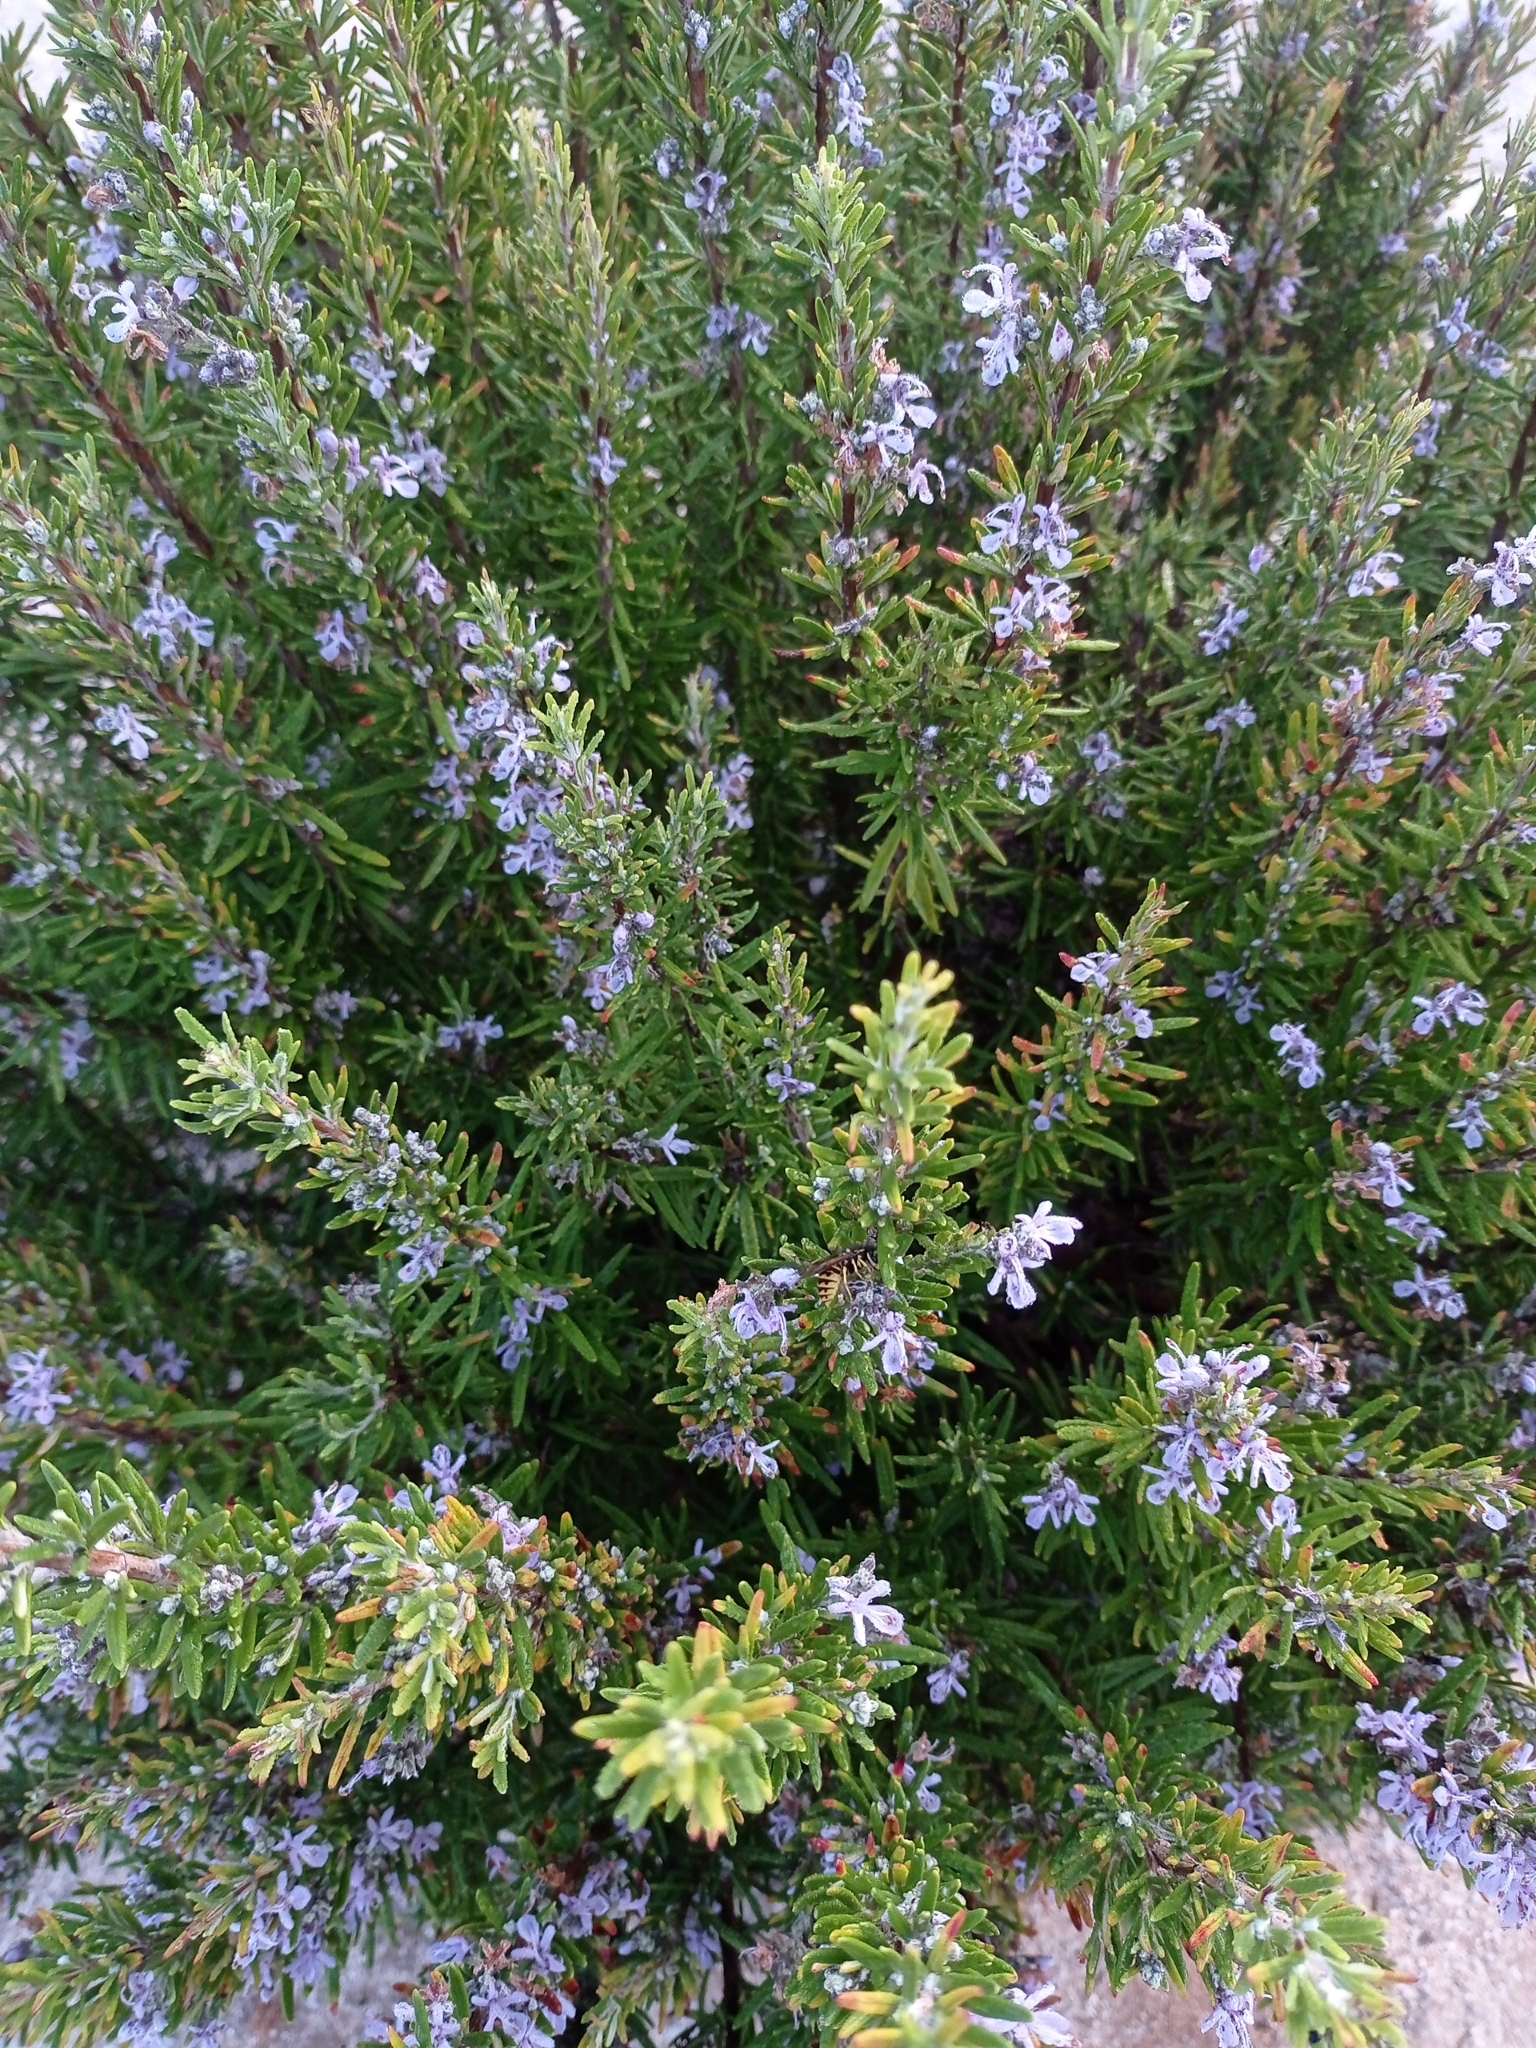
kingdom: Plantae
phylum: Tracheophyta
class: Magnoliopsida
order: Lamiales
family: Lamiaceae
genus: Salvia
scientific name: Salvia rosmarinus
